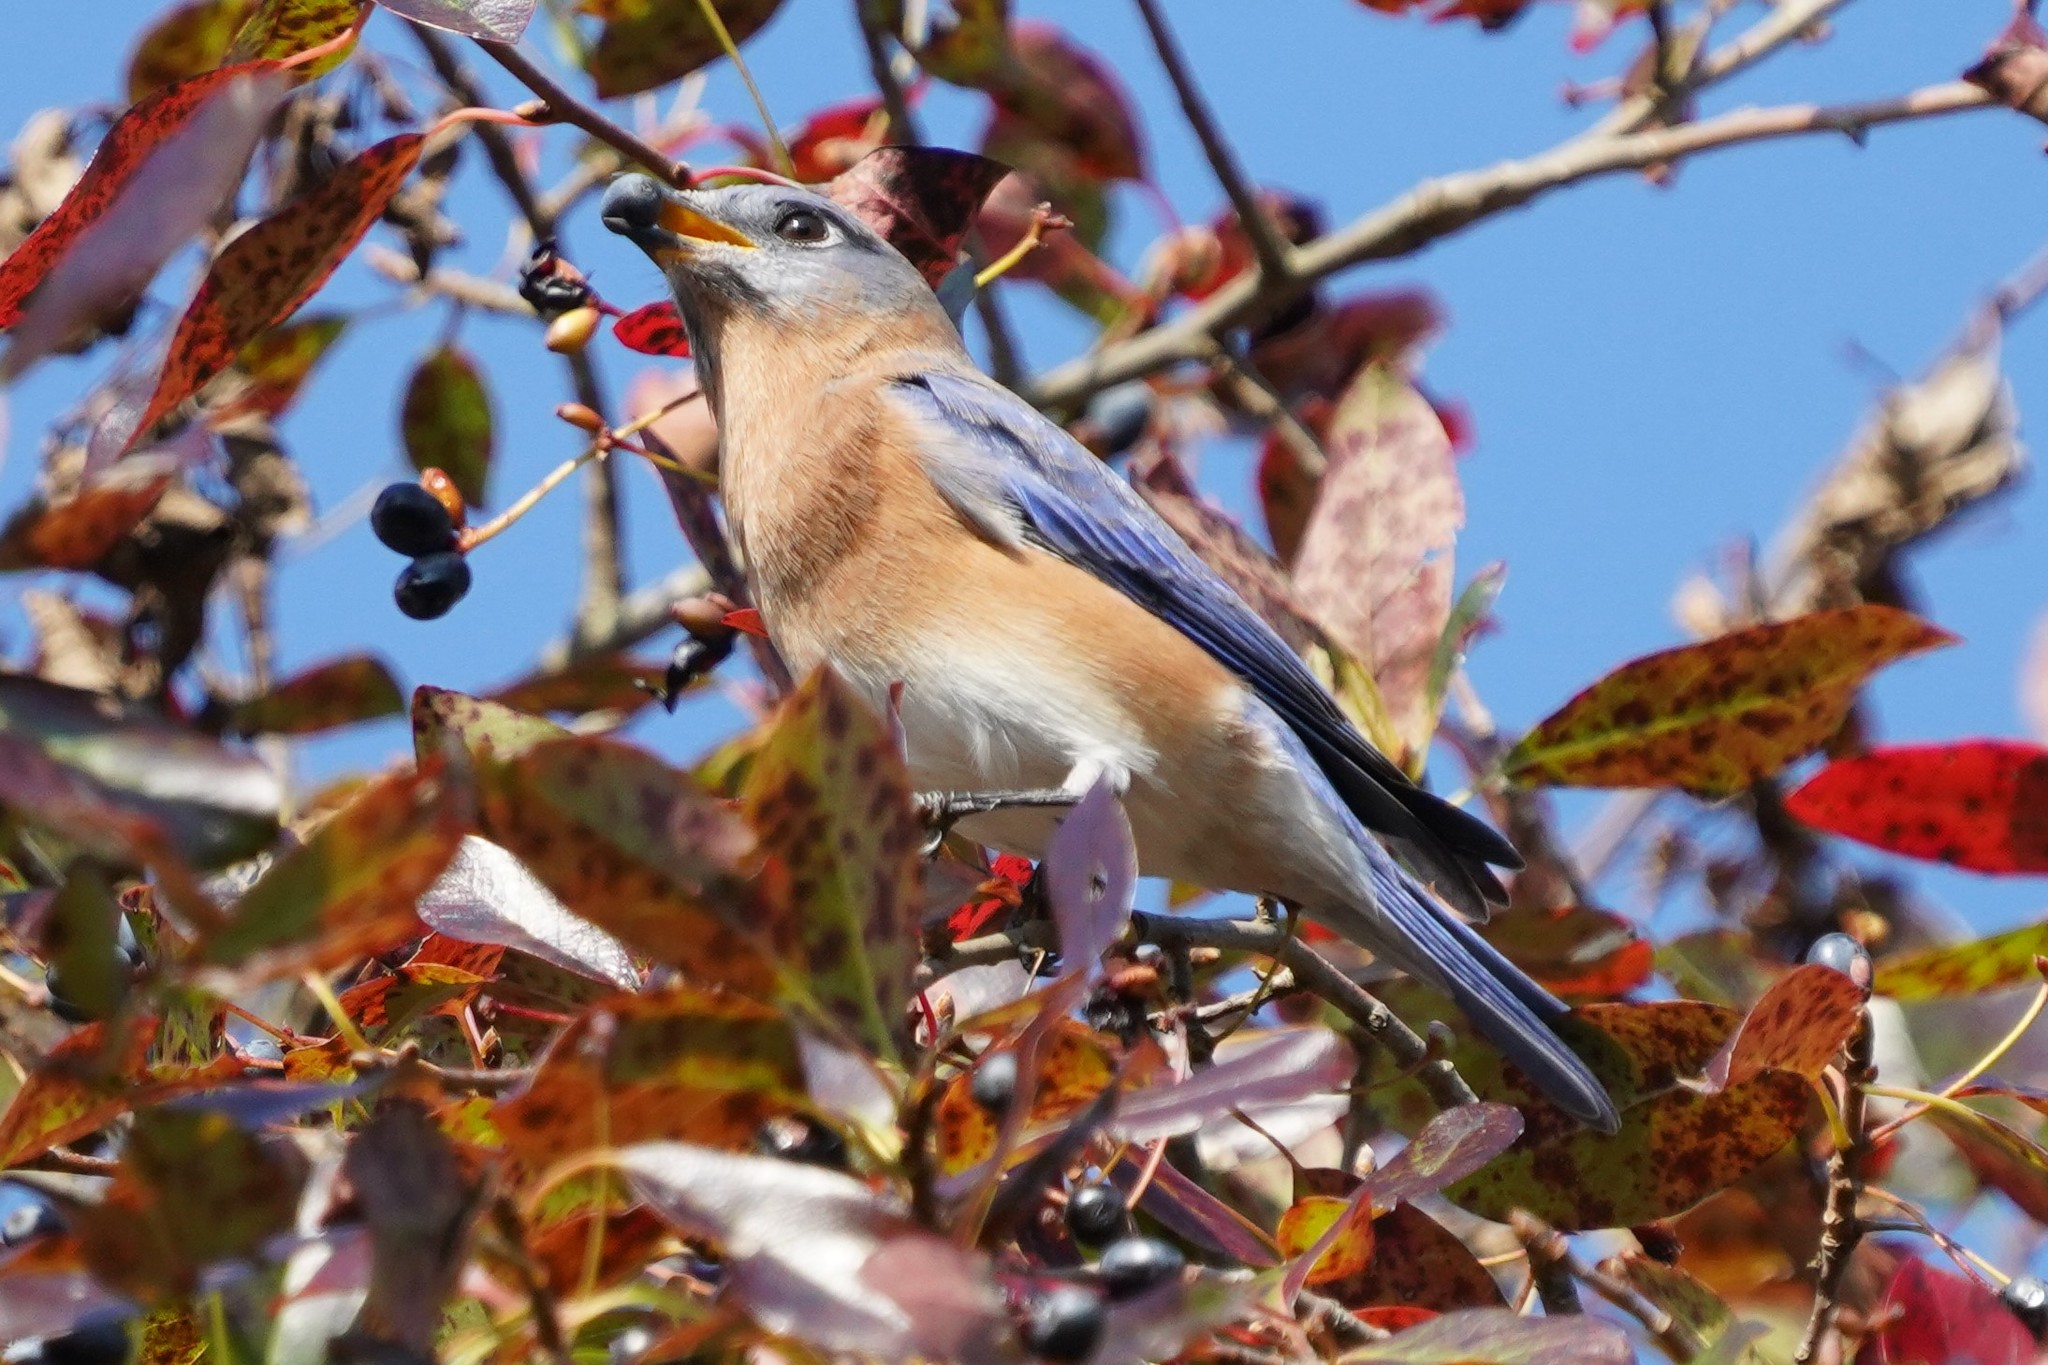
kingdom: Animalia
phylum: Chordata
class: Aves
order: Passeriformes
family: Turdidae
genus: Sialia
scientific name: Sialia sialis
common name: Eastern bluebird
